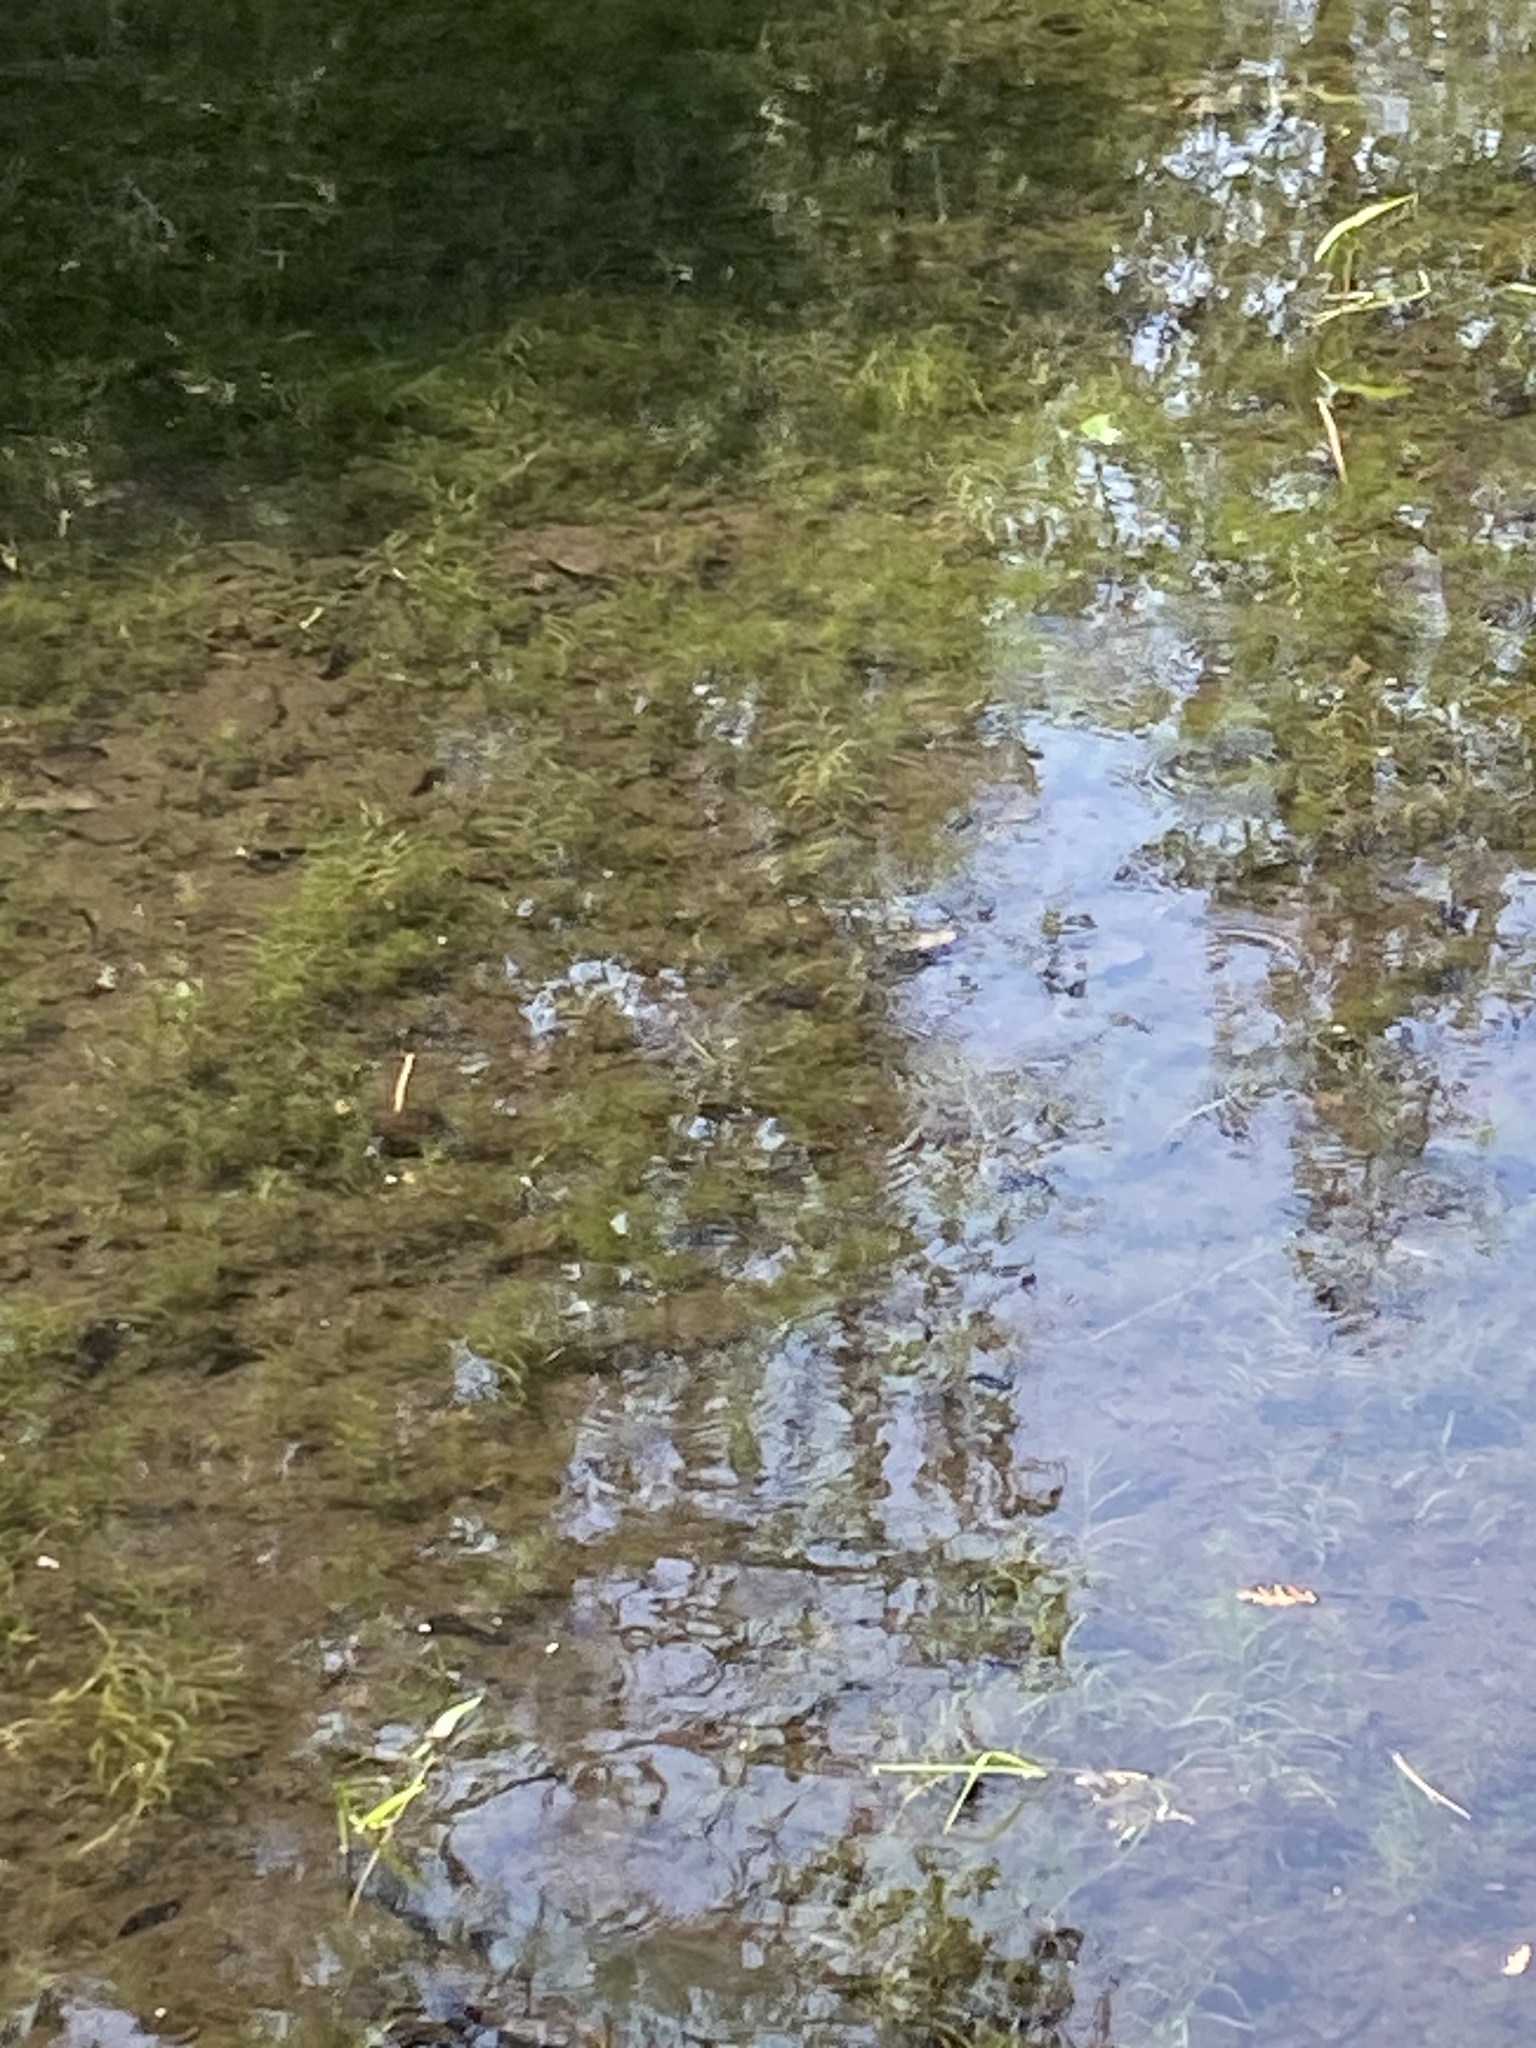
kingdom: Animalia
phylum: Chordata
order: Perciformes
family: Centrarchidae
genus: Micropterus
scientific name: Micropterus
